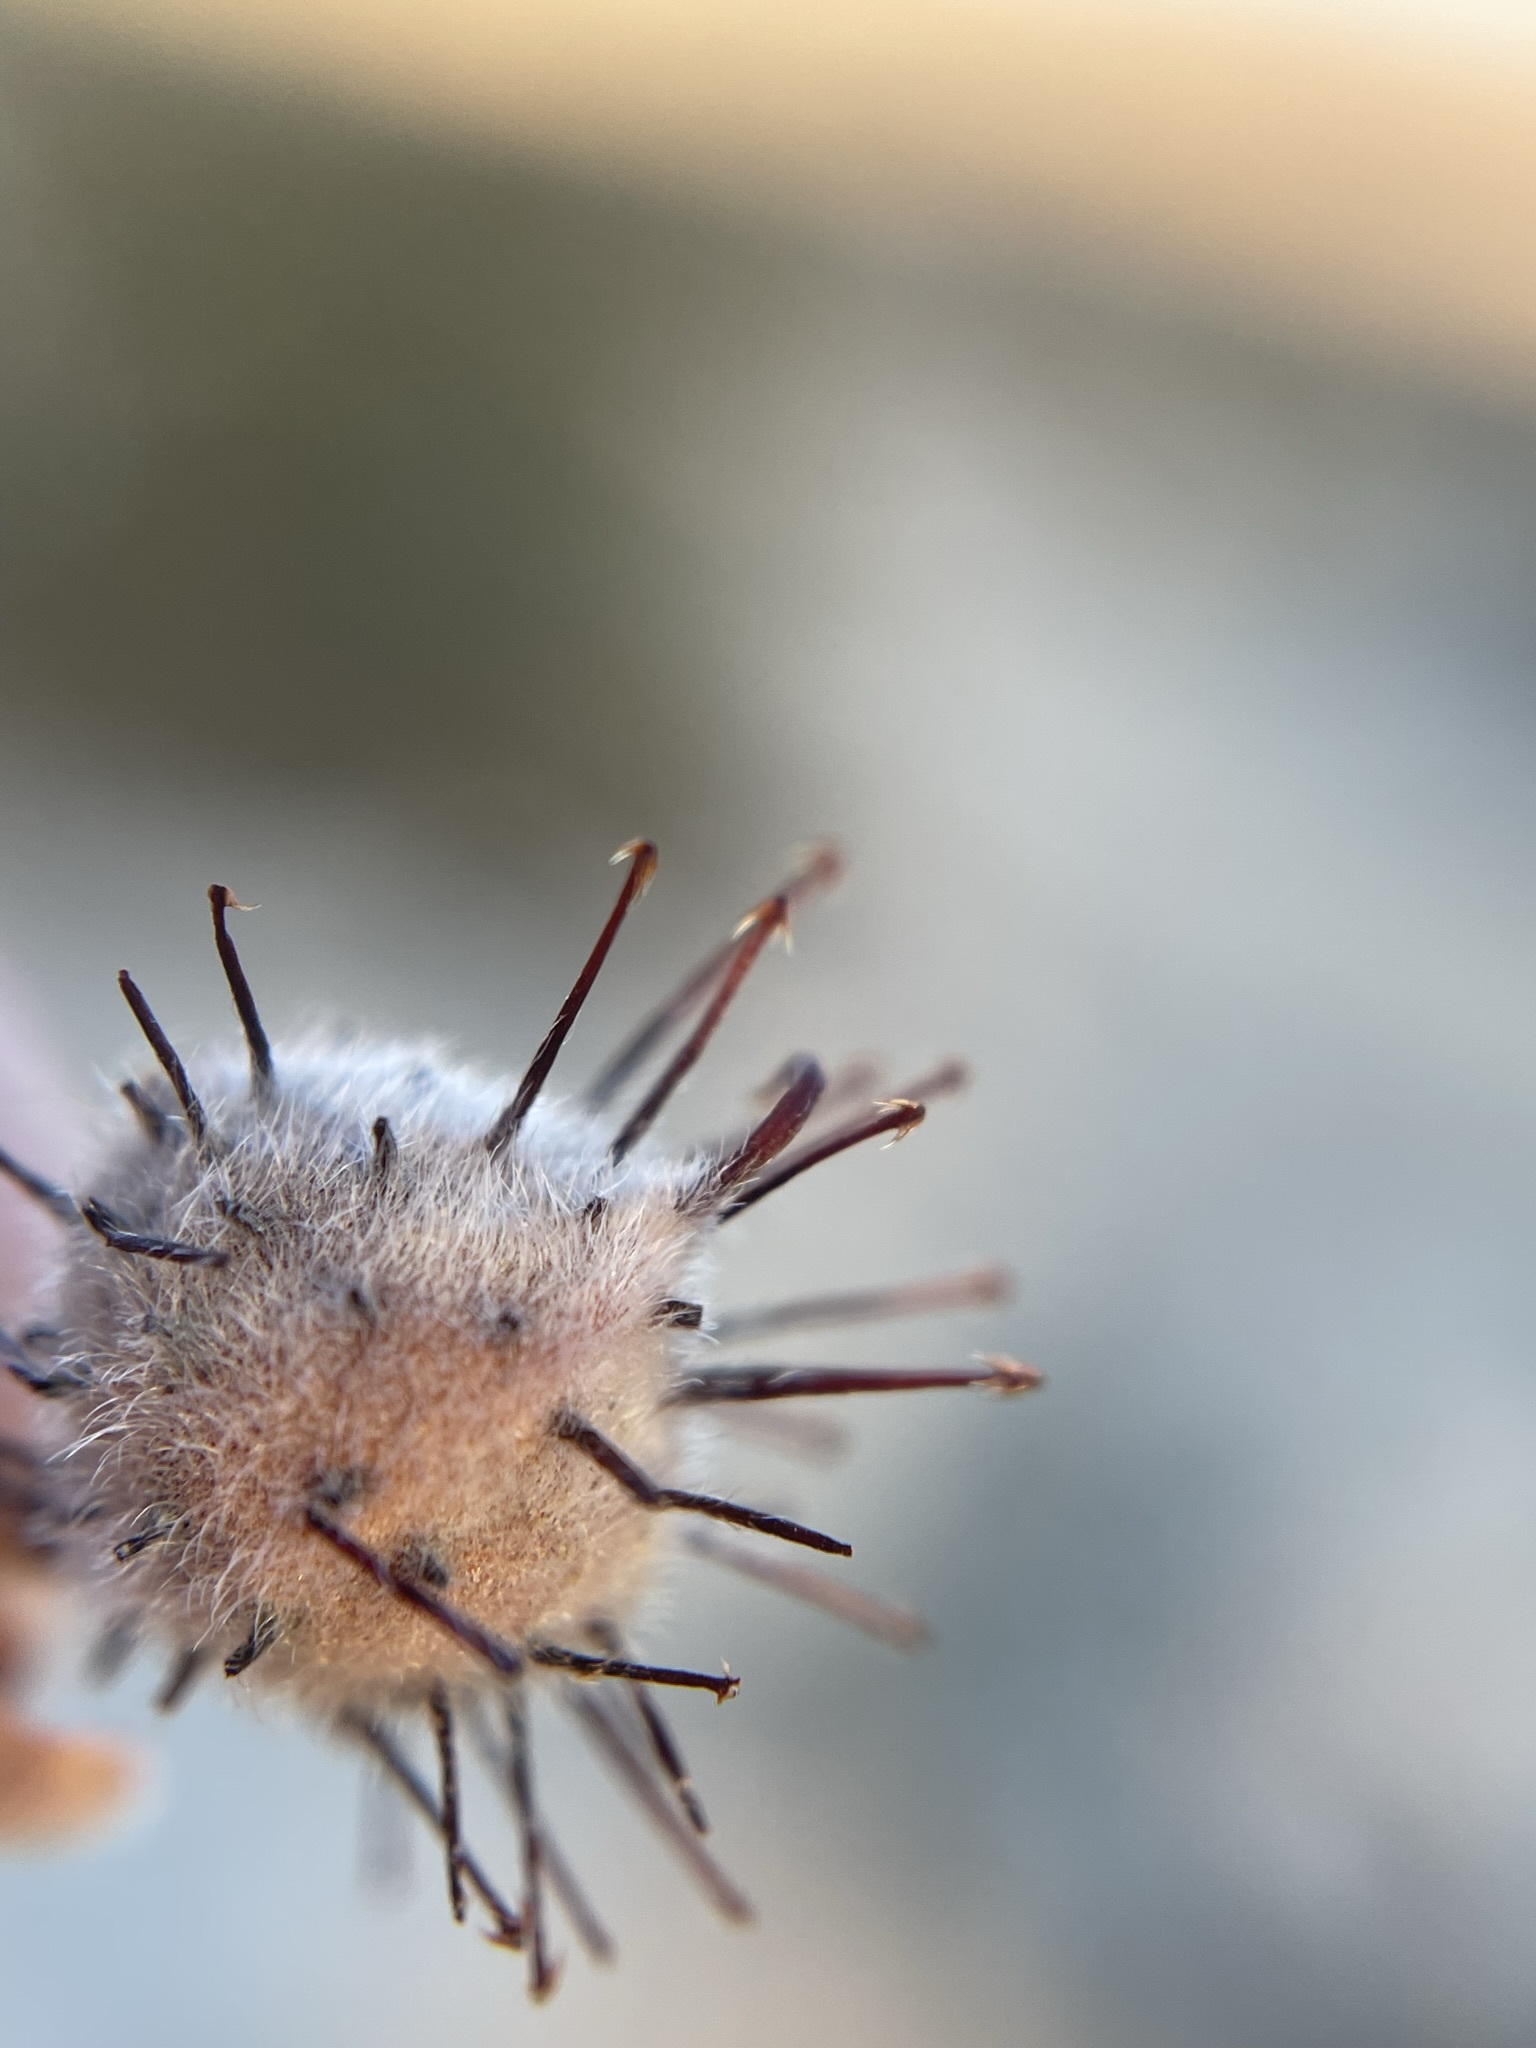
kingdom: Plantae
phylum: Tracheophyta
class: Magnoliopsida
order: Zygophyllales
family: Krameriaceae
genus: Krameria
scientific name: Krameria bicolor
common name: White ratany
